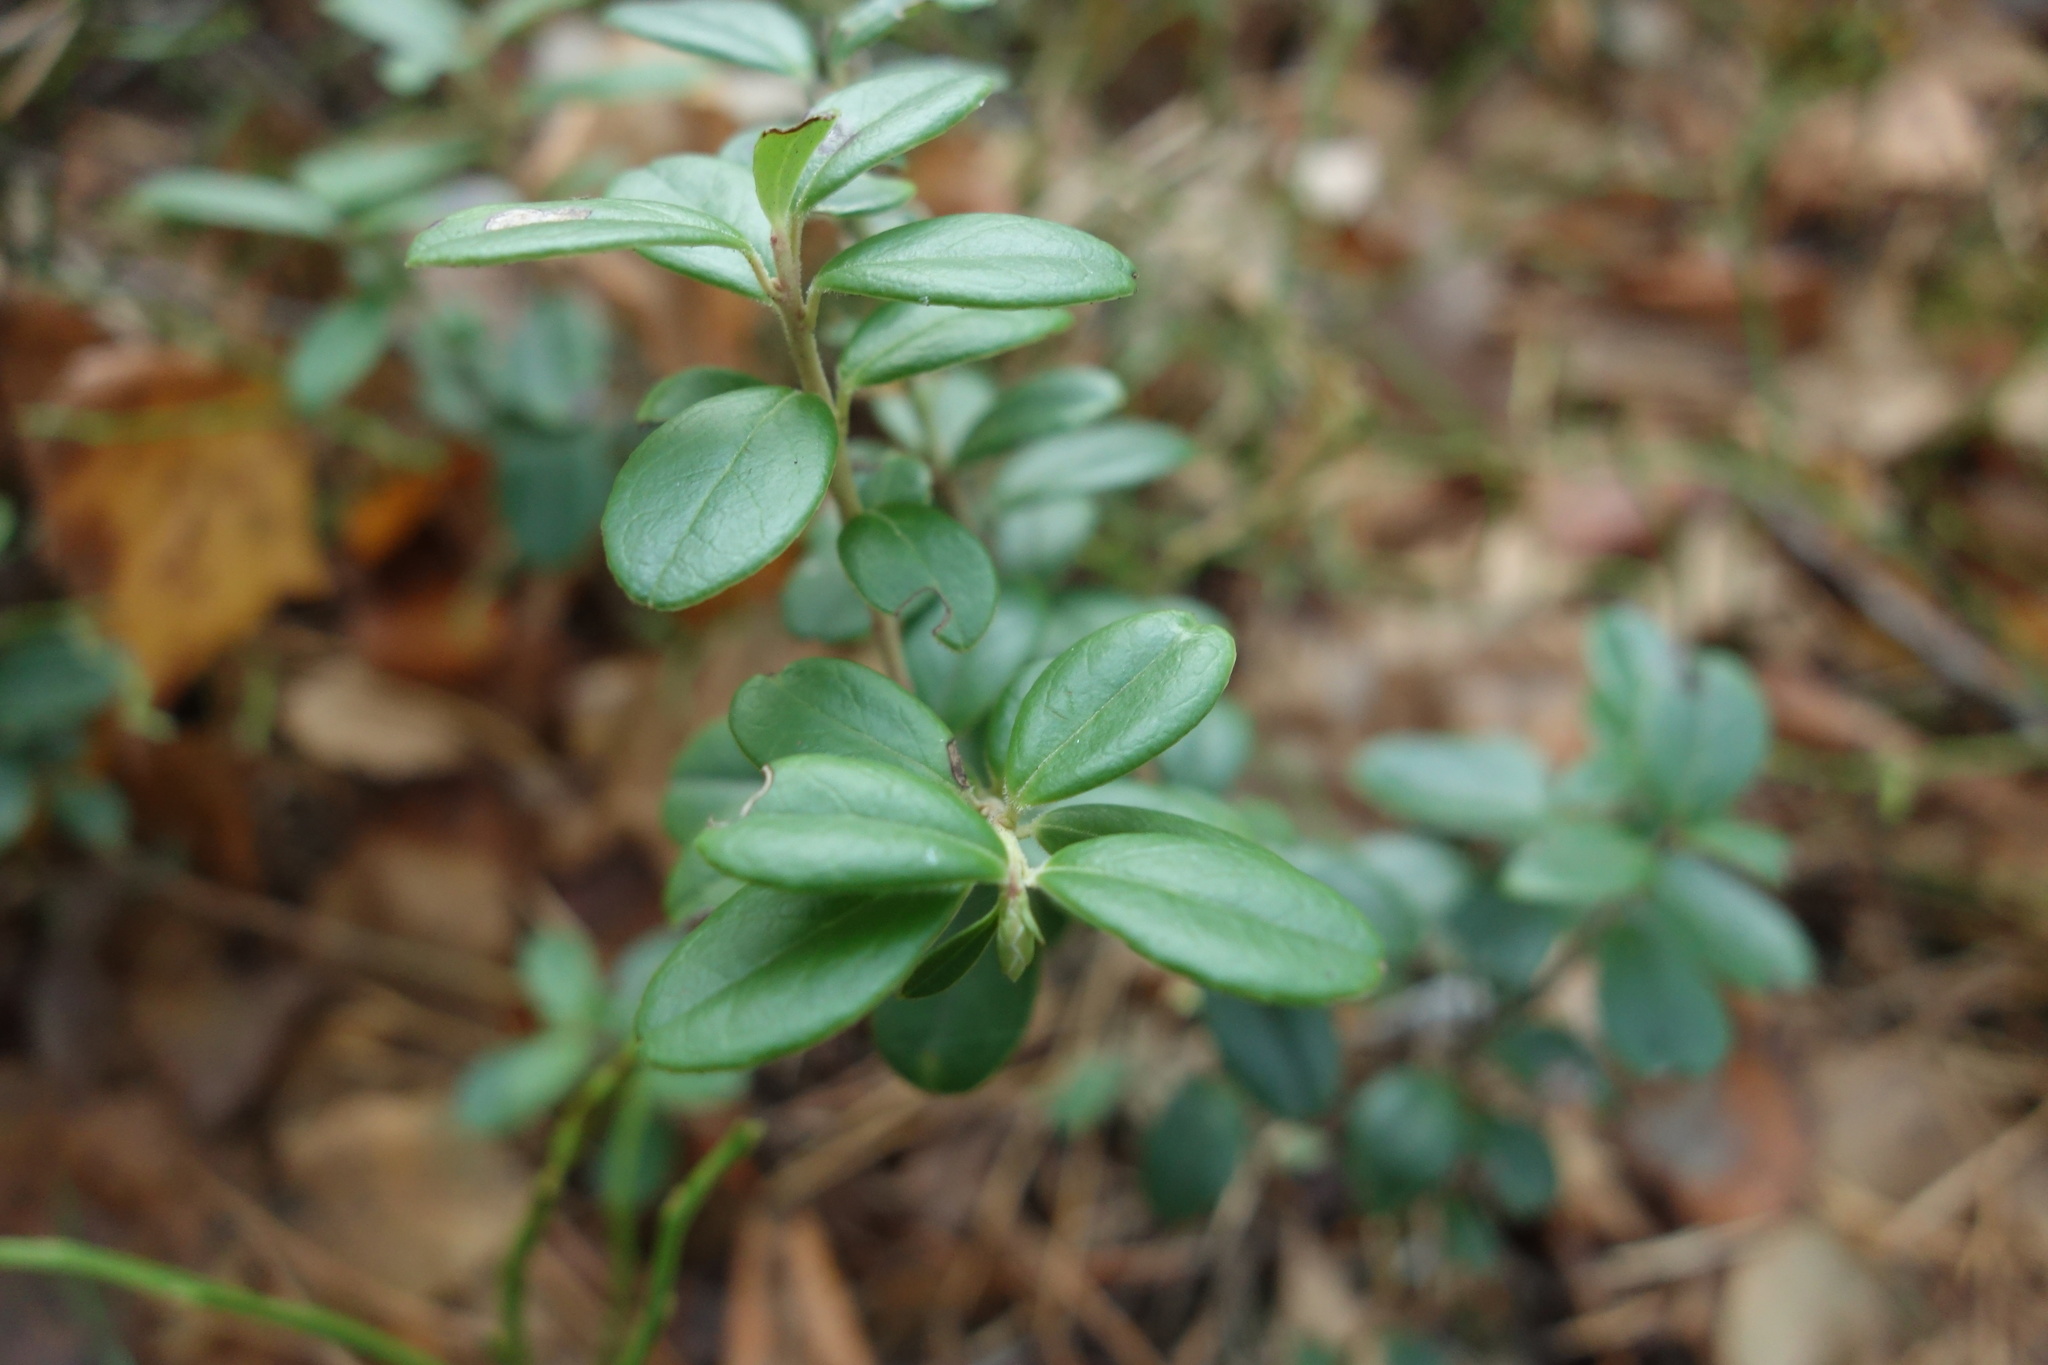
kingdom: Plantae
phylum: Tracheophyta
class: Magnoliopsida
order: Ericales
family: Ericaceae
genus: Vaccinium
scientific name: Vaccinium vitis-idaea
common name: Cowberry
